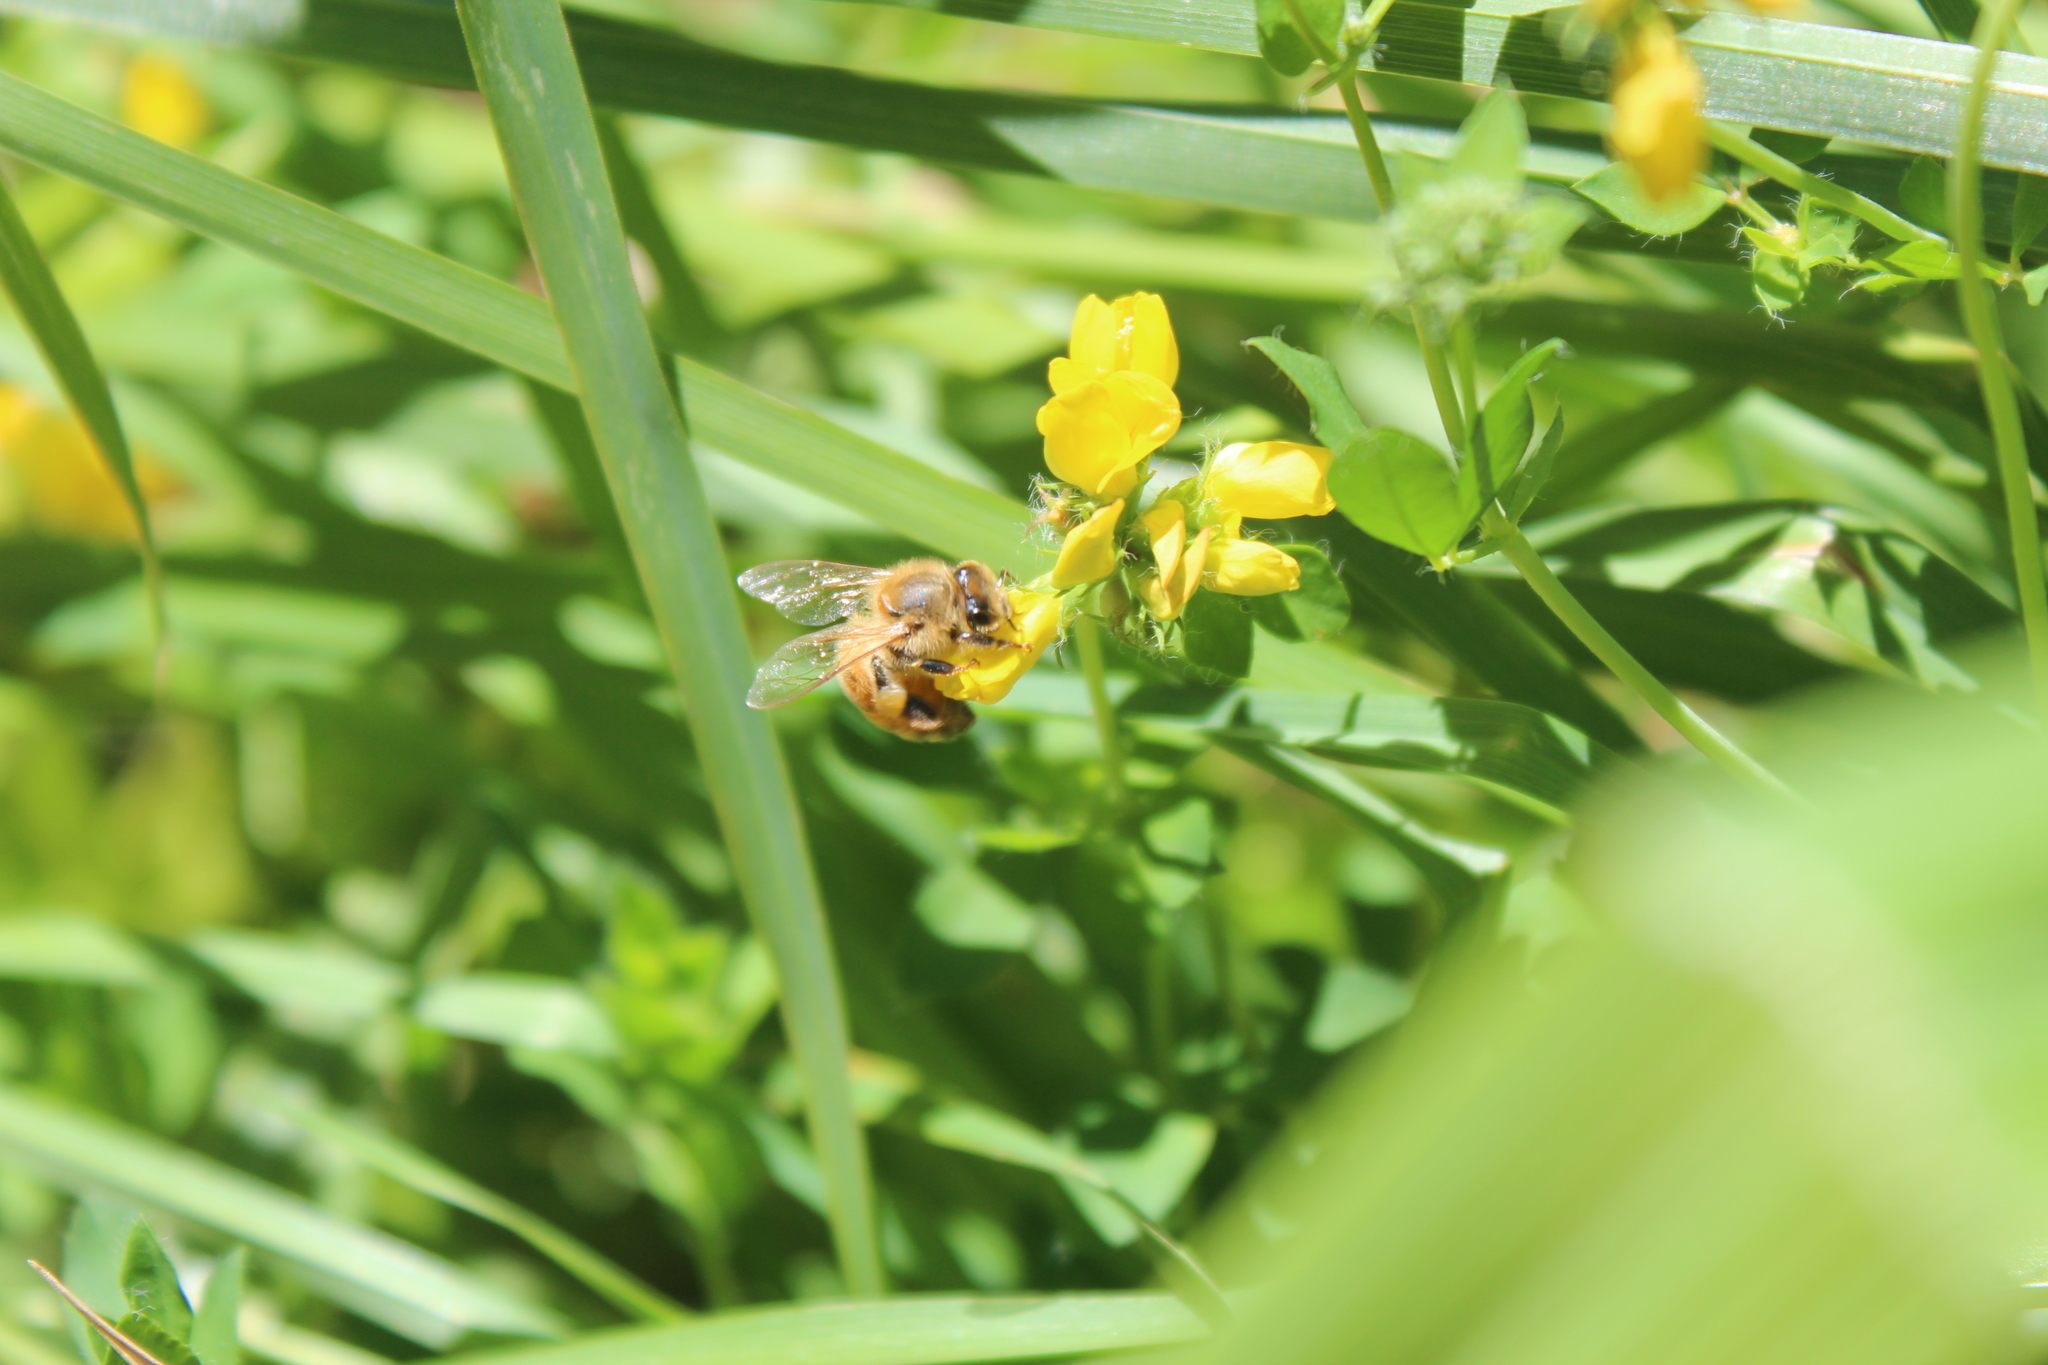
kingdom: Animalia
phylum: Arthropoda
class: Insecta
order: Hymenoptera
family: Apidae
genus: Apis
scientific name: Apis mellifera
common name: Honey bee
